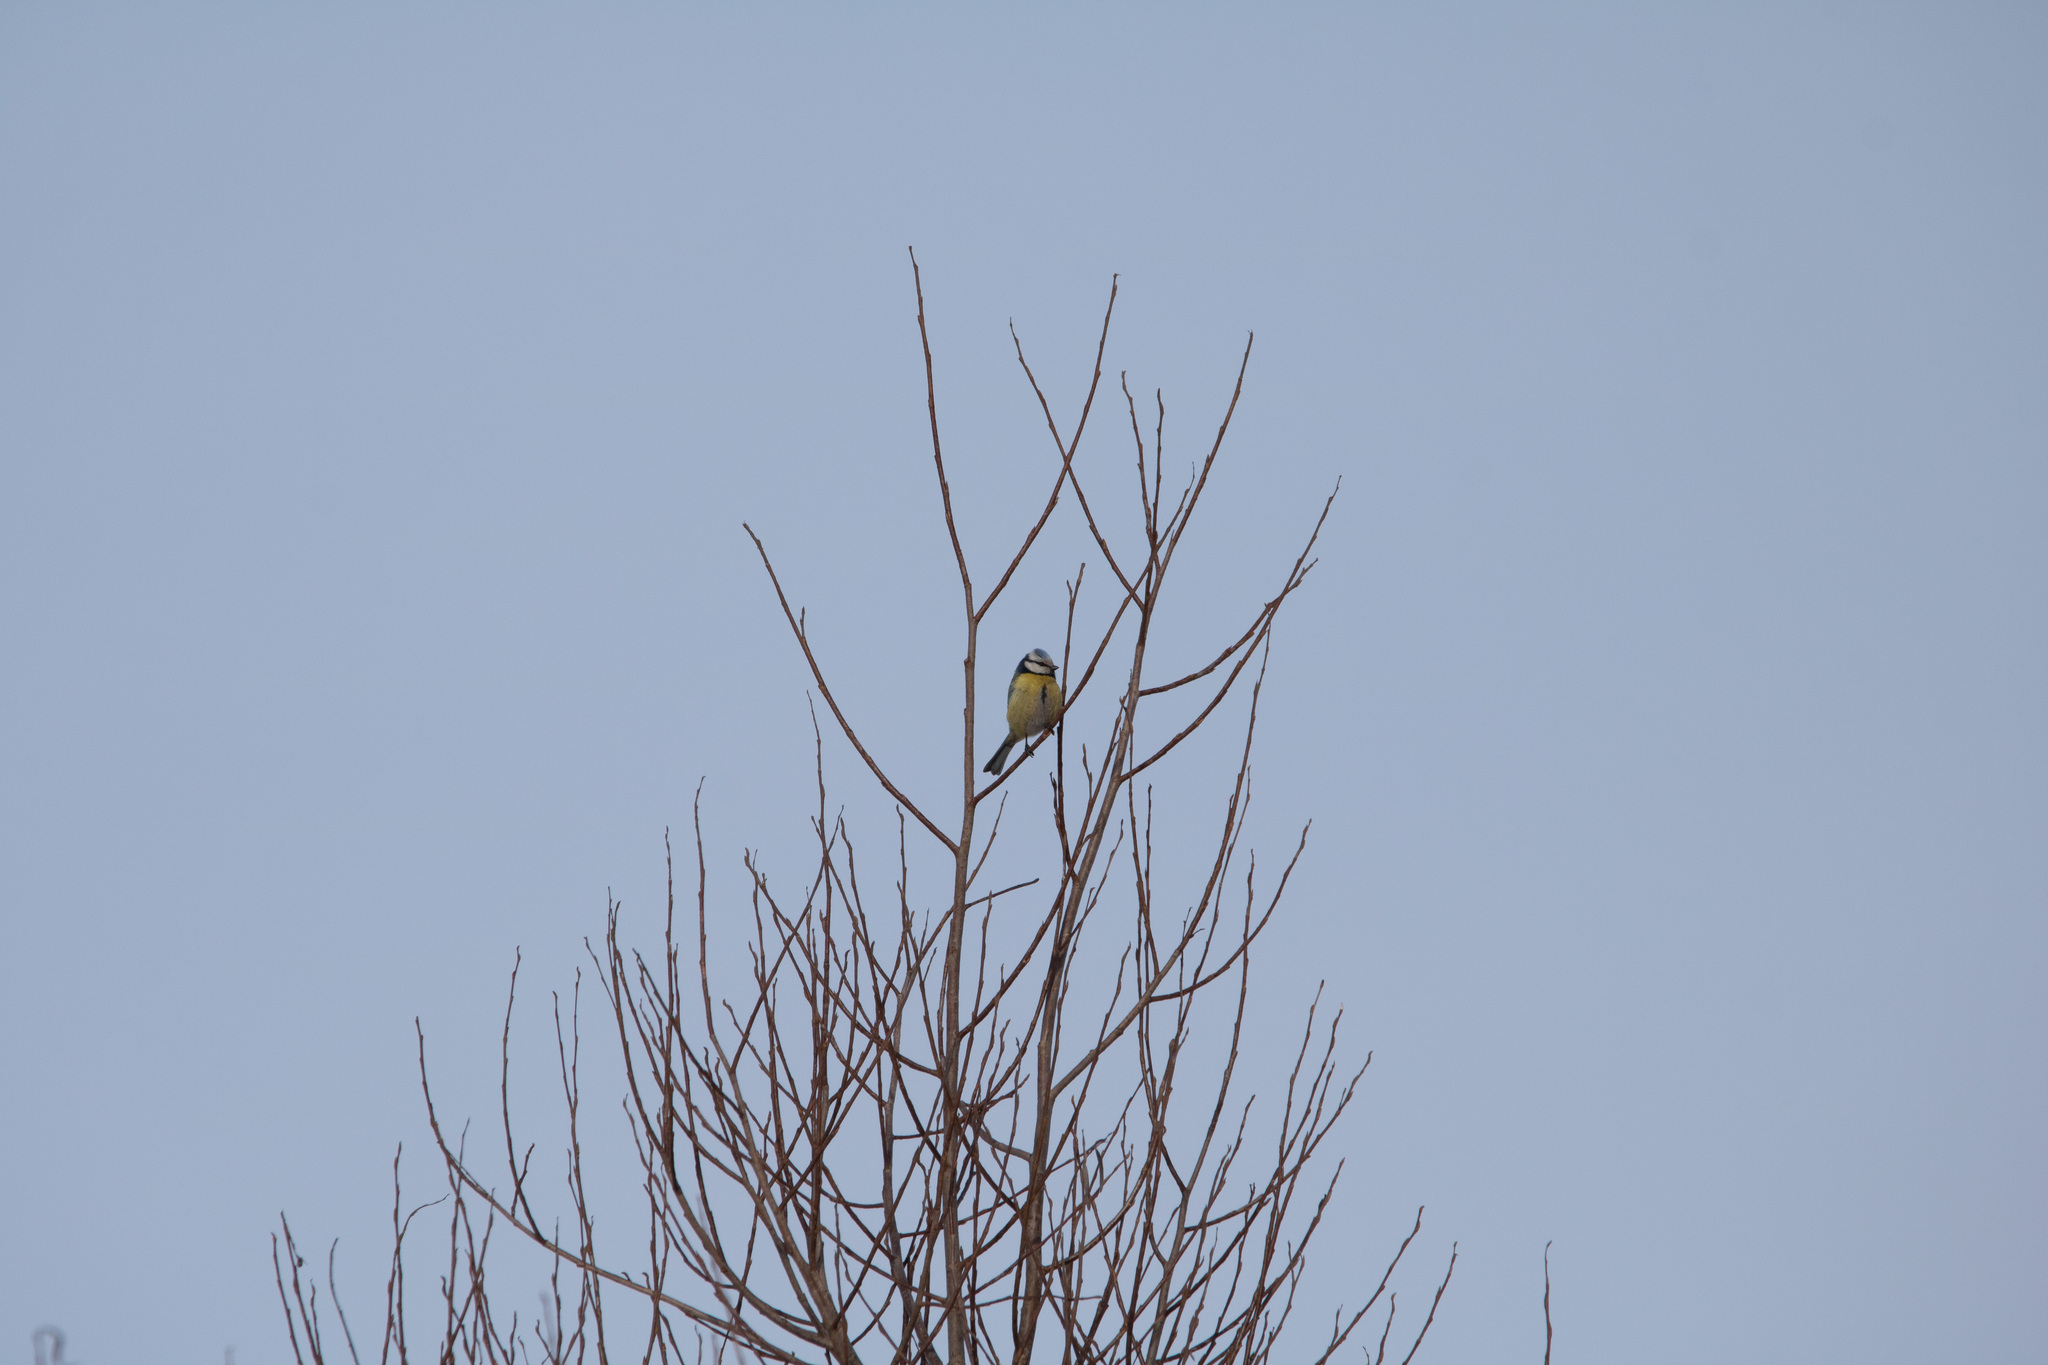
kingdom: Animalia
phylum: Chordata
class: Aves
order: Passeriformes
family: Paridae
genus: Cyanistes
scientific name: Cyanistes caeruleus
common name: Eurasian blue tit
